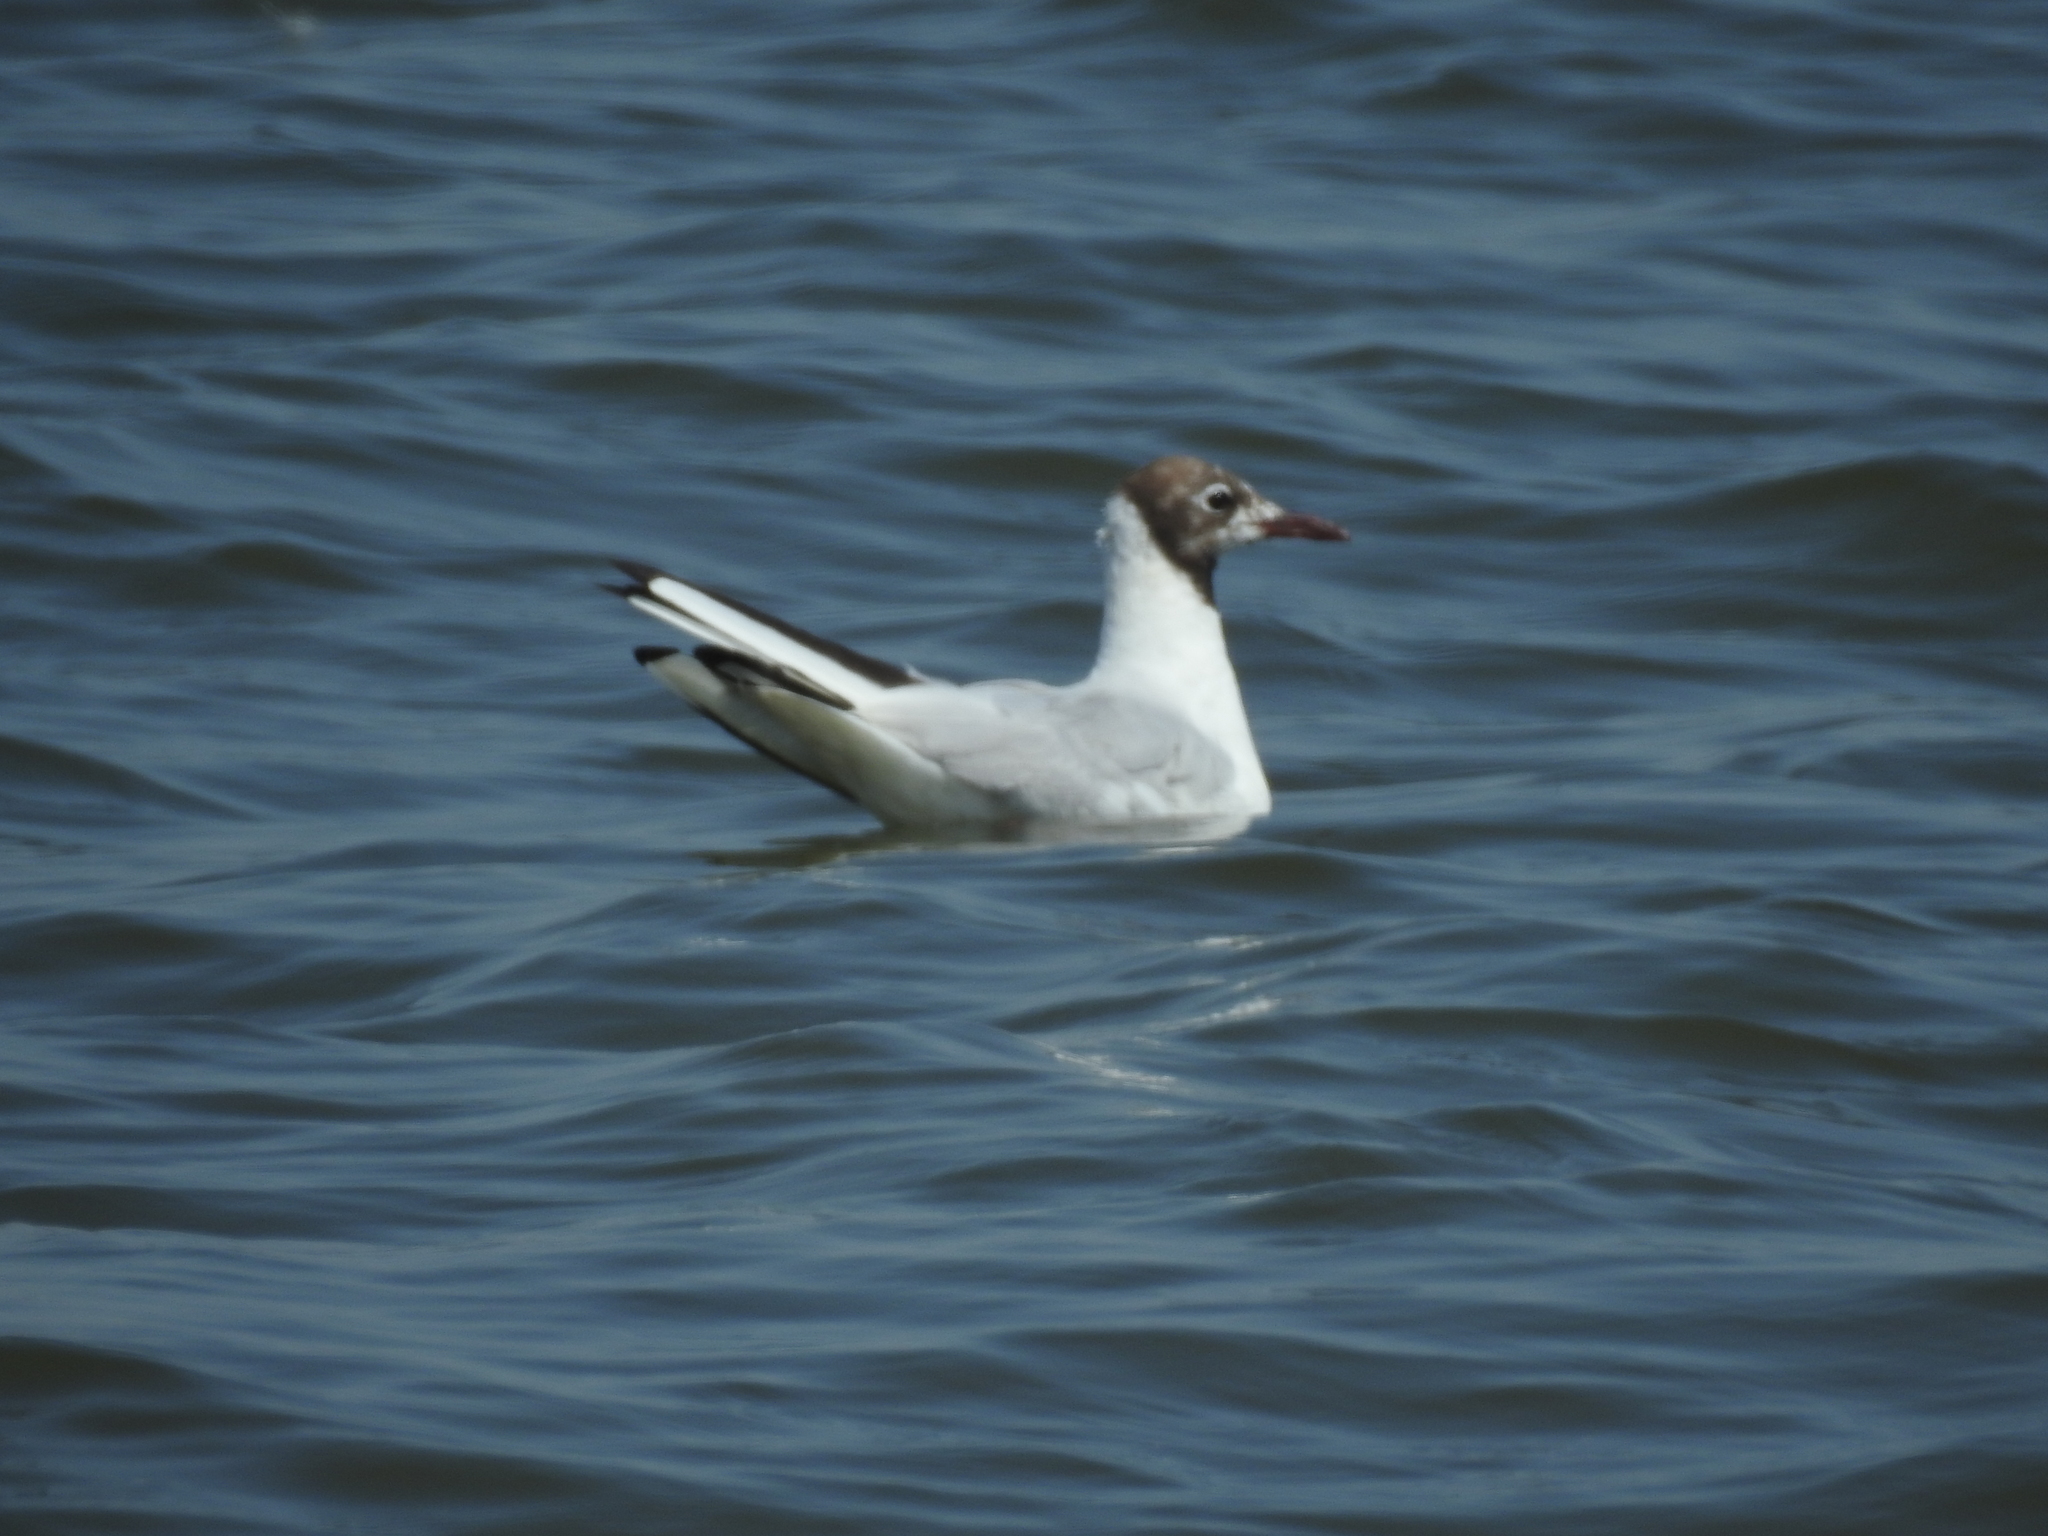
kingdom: Animalia
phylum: Chordata
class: Aves
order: Charadriiformes
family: Laridae
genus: Chroicocephalus
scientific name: Chroicocephalus ridibundus
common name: Black-headed gull
